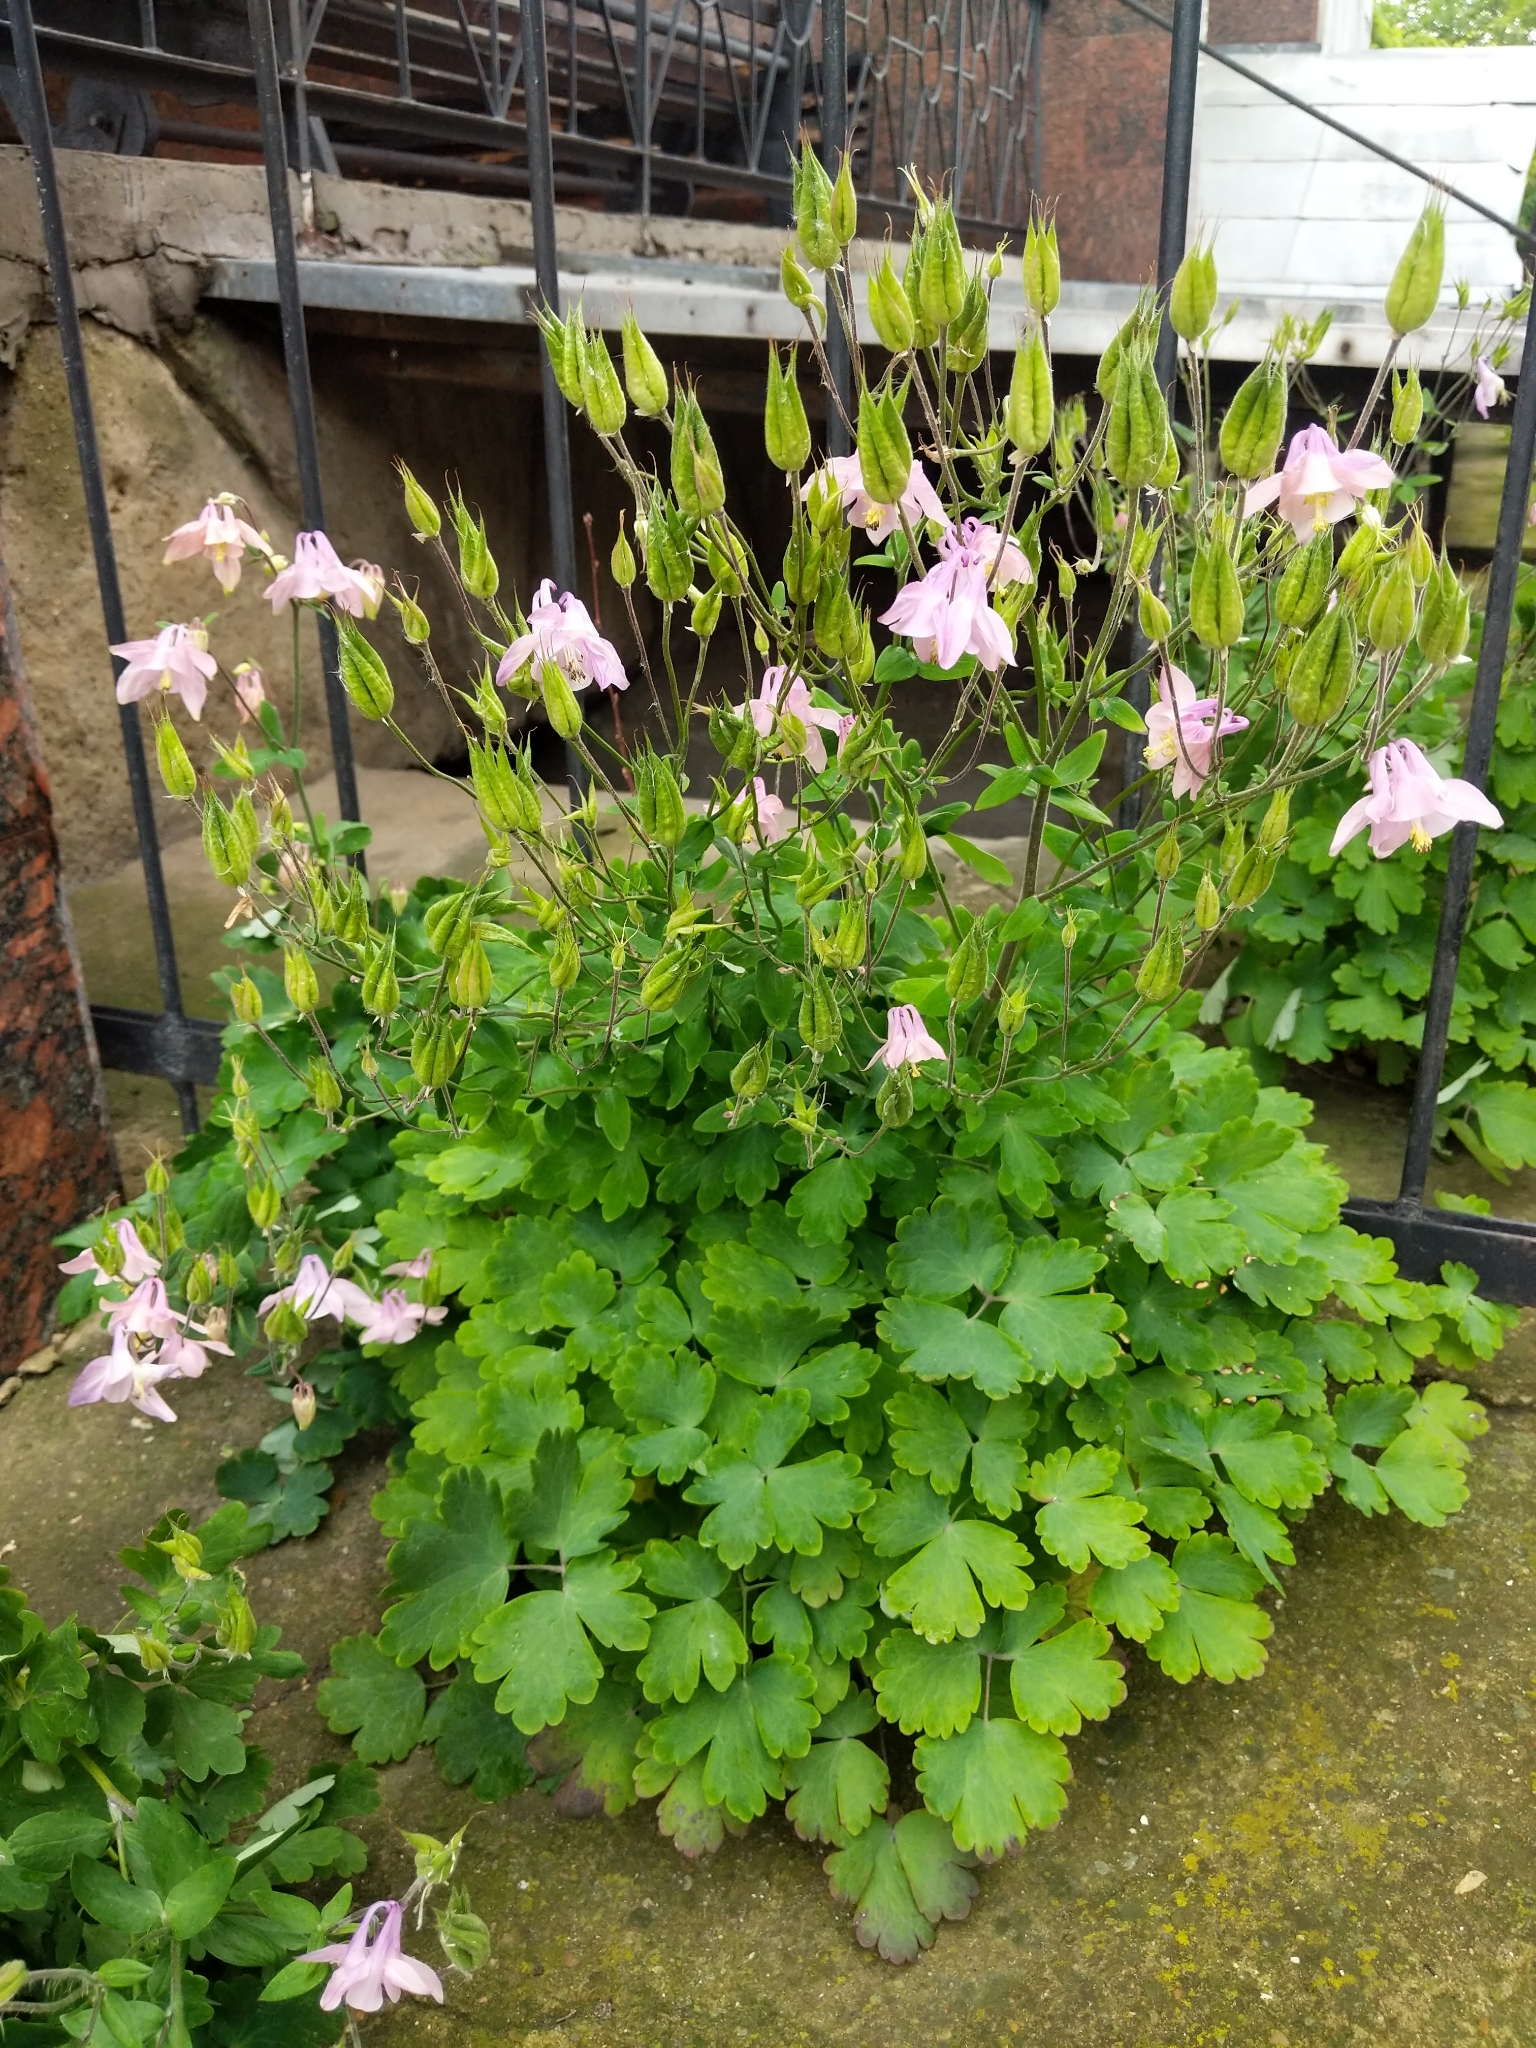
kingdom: Plantae
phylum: Tracheophyta
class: Magnoliopsida
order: Ranunculales
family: Ranunculaceae
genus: Aquilegia
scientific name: Aquilegia vulgaris
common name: Columbine
